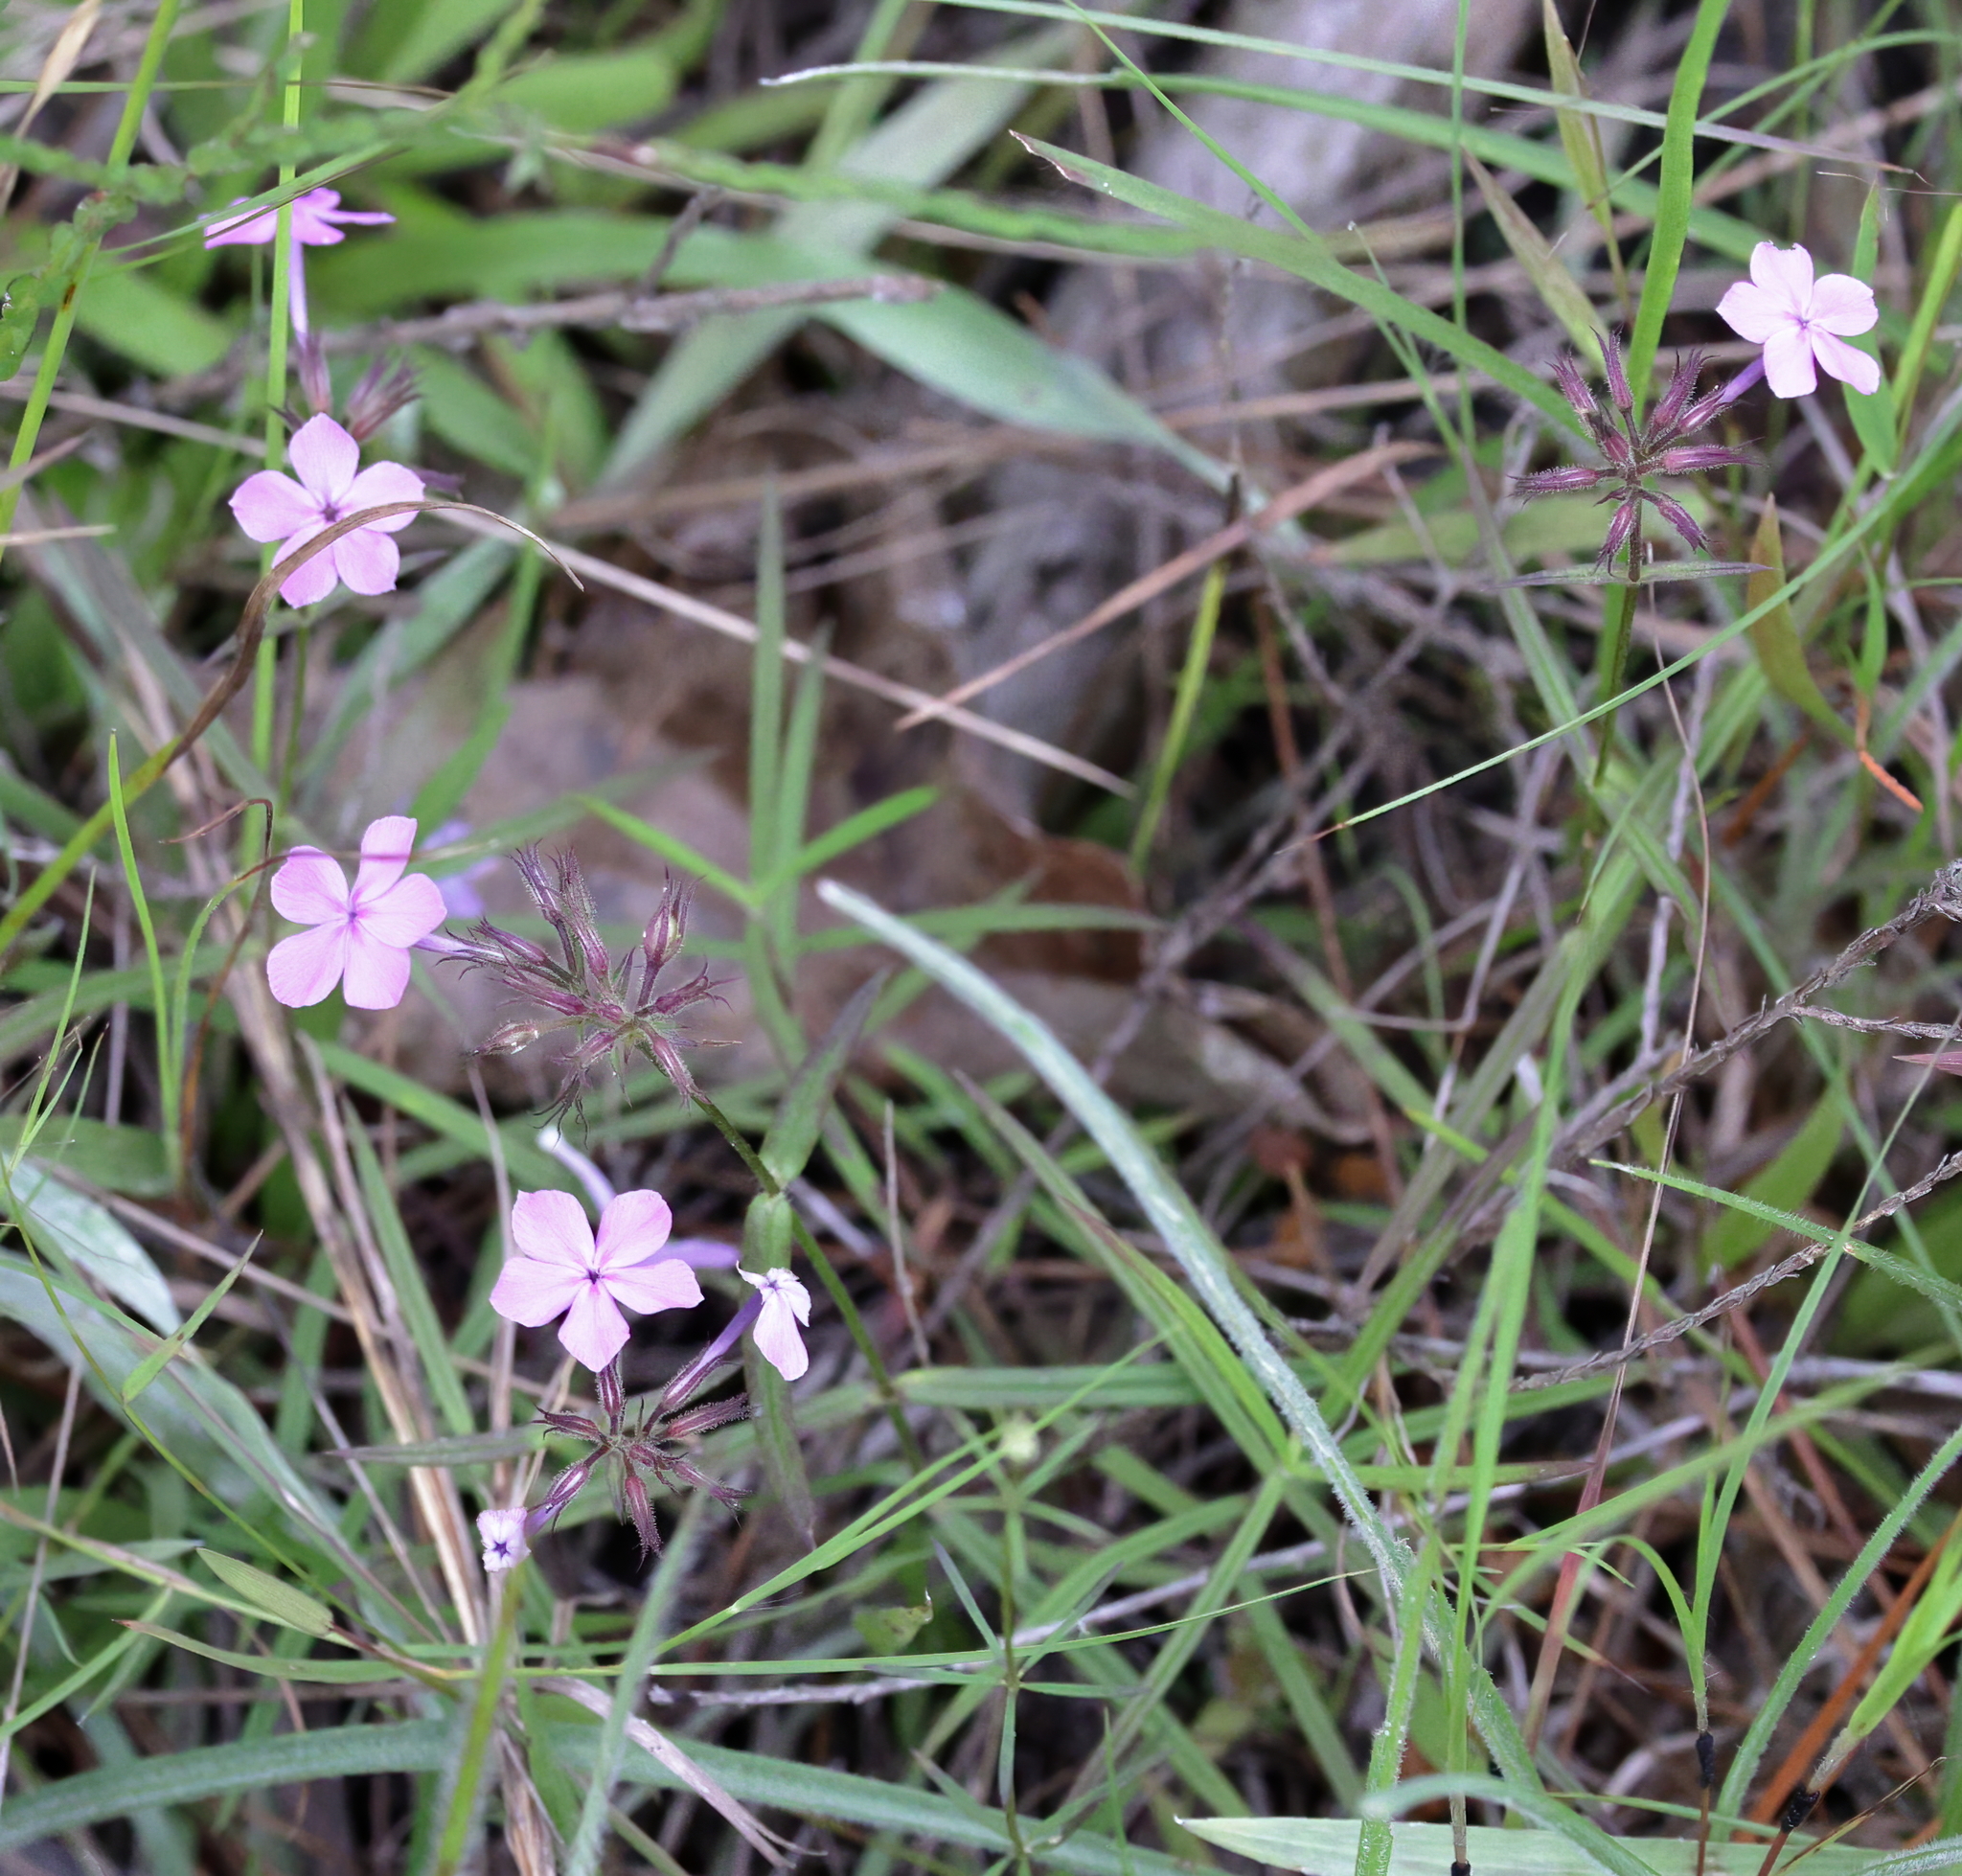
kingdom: Plantae
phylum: Tracheophyta
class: Magnoliopsida
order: Ericales
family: Polemoniaceae
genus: Phlox
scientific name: Phlox pilosa
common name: Prairie phlox
